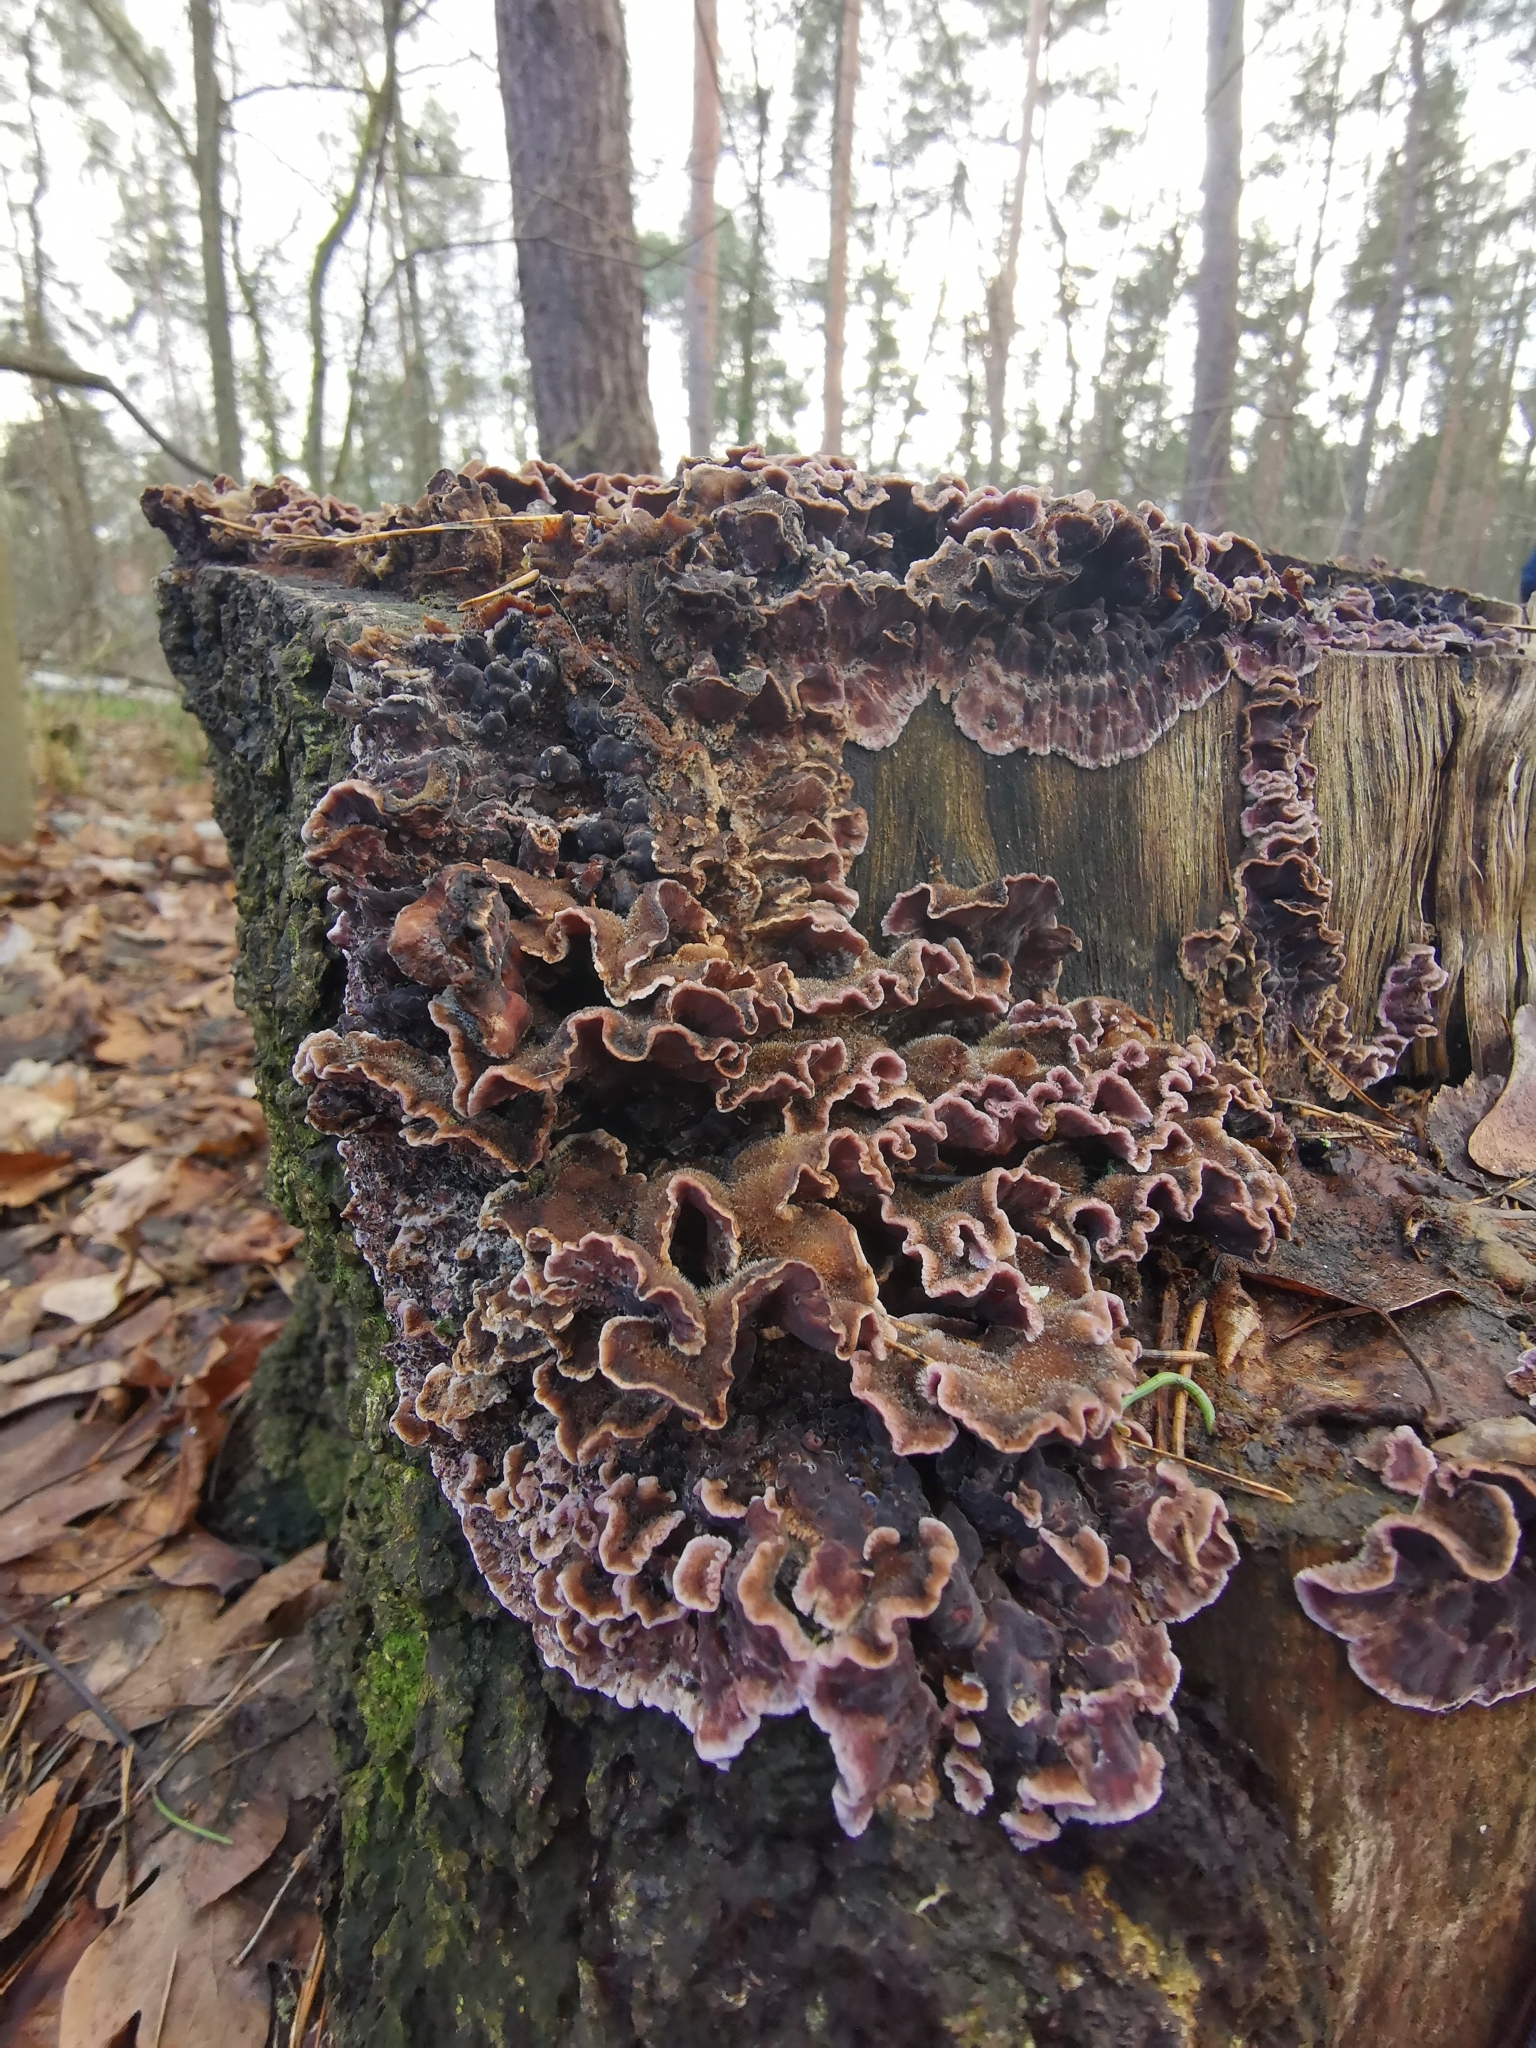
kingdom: Fungi
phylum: Basidiomycota
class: Agaricomycetes
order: Agaricales
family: Cyphellaceae
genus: Chondrostereum
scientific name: Chondrostereum purpureum
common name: Silver leaf disease
